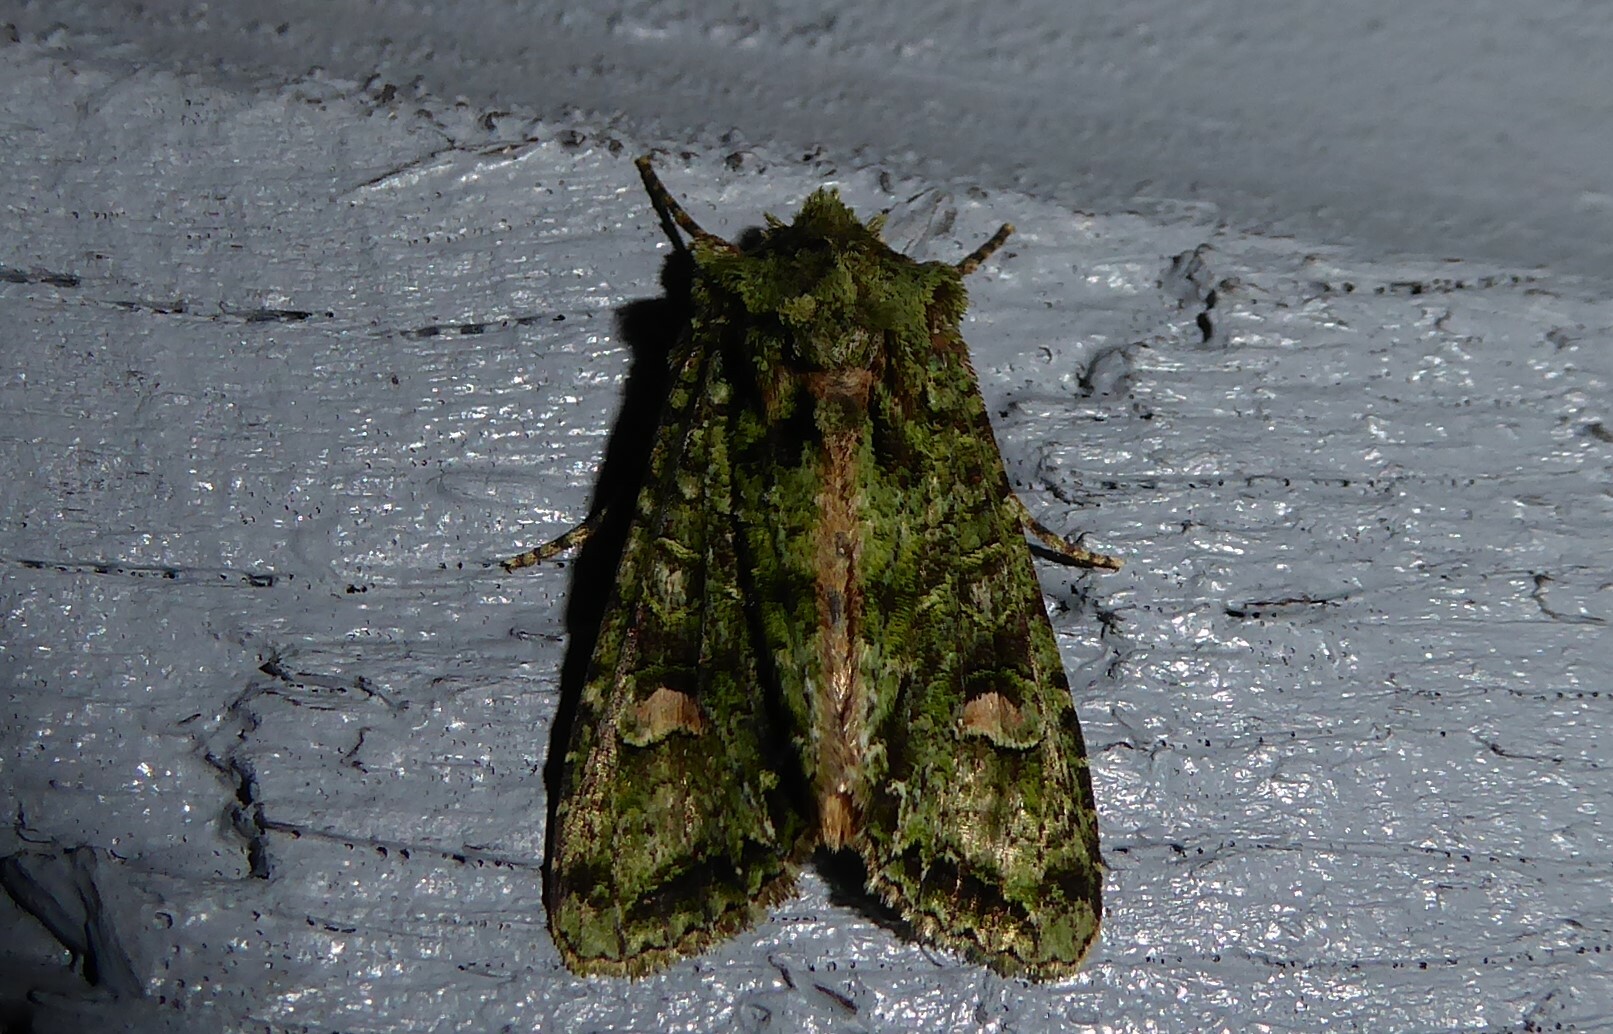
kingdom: Animalia
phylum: Arthropoda
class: Insecta
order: Lepidoptera
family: Noctuidae
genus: Ichneutica
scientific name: Ichneutica
